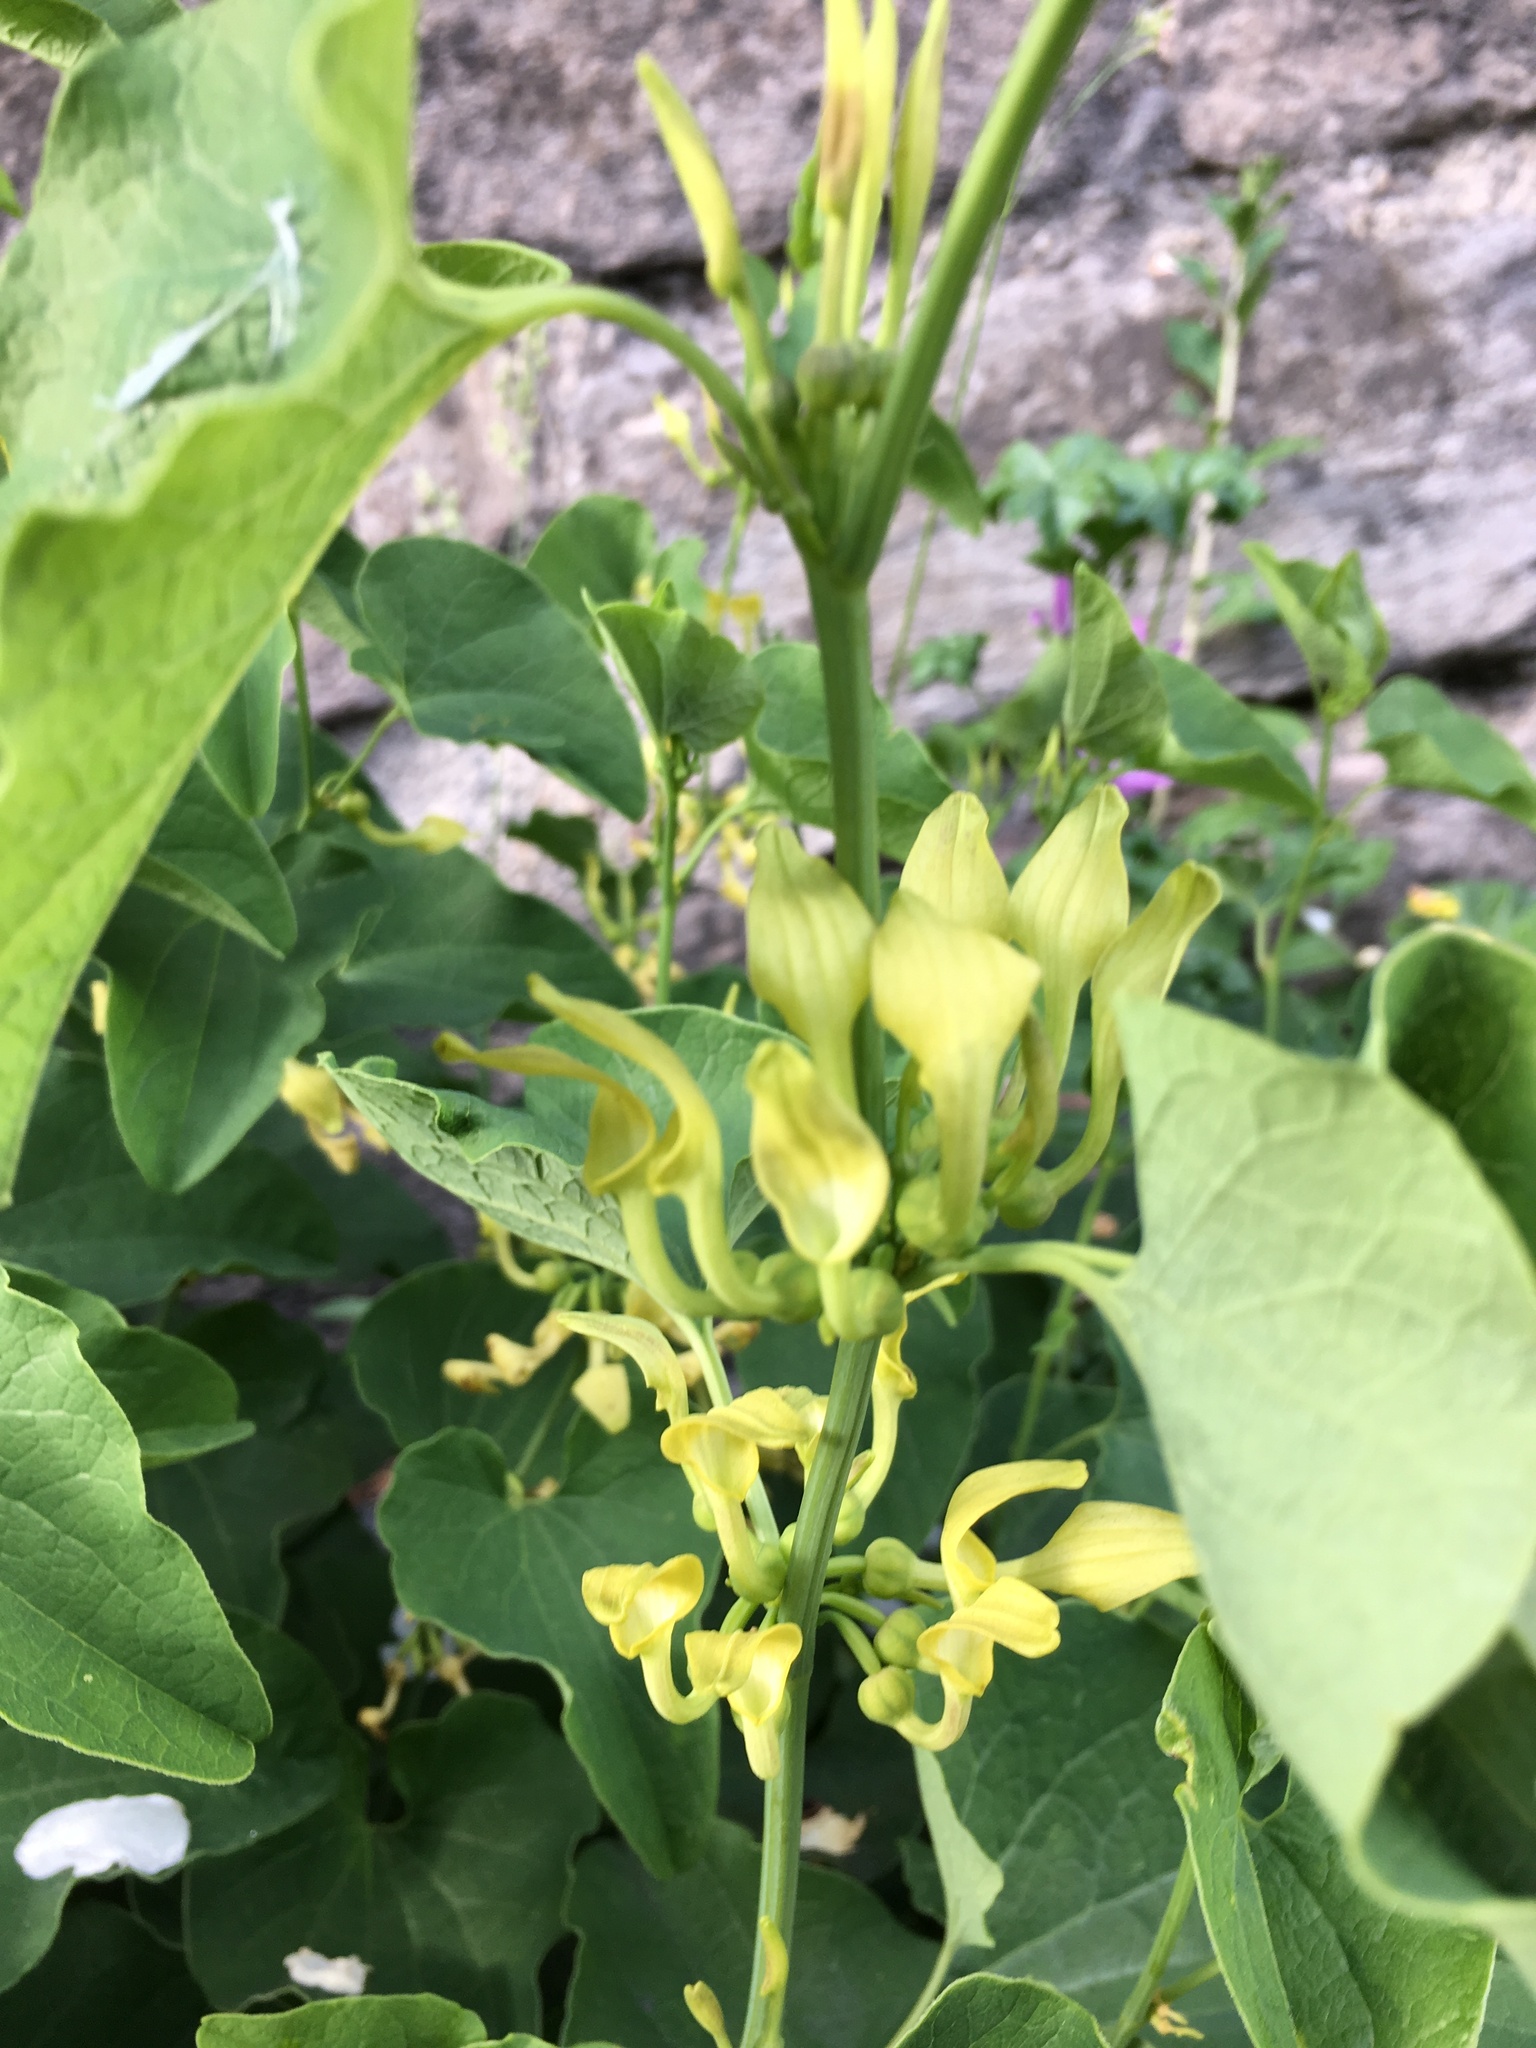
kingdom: Plantae
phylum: Tracheophyta
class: Magnoliopsida
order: Piperales
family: Aristolochiaceae
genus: Aristolochia
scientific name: Aristolochia clematitis
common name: Birthwort
